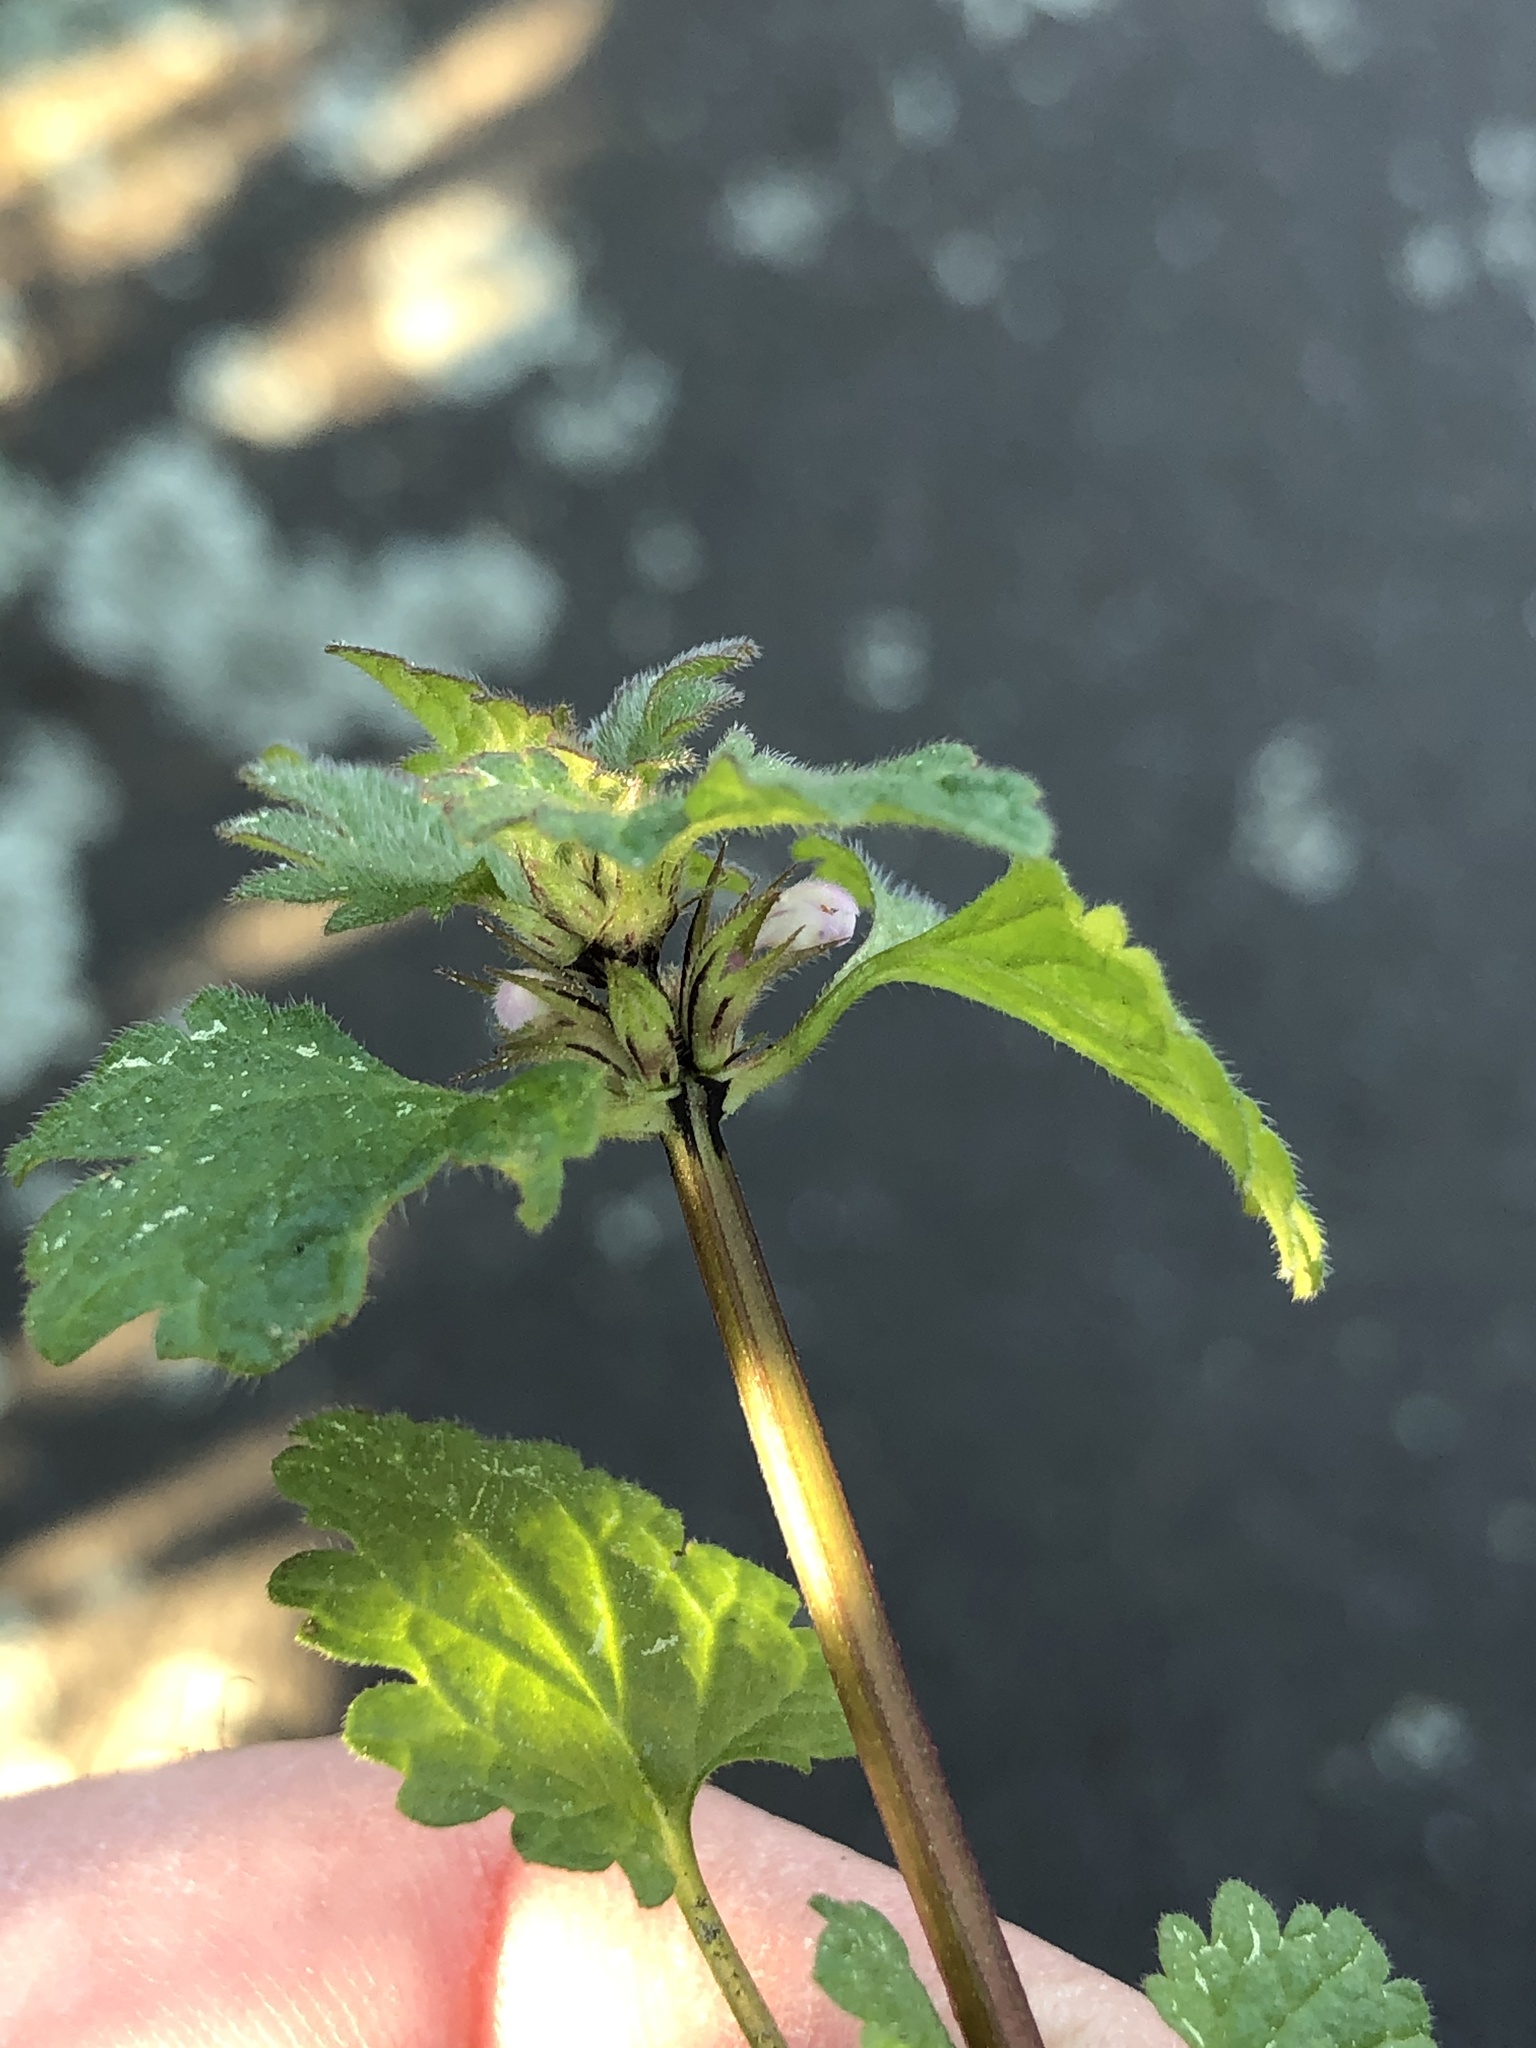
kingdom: Plantae
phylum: Tracheophyta
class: Magnoliopsida
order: Lamiales
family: Lamiaceae
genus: Lamium
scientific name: Lamium amplexicaule
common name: Henbit dead-nettle
